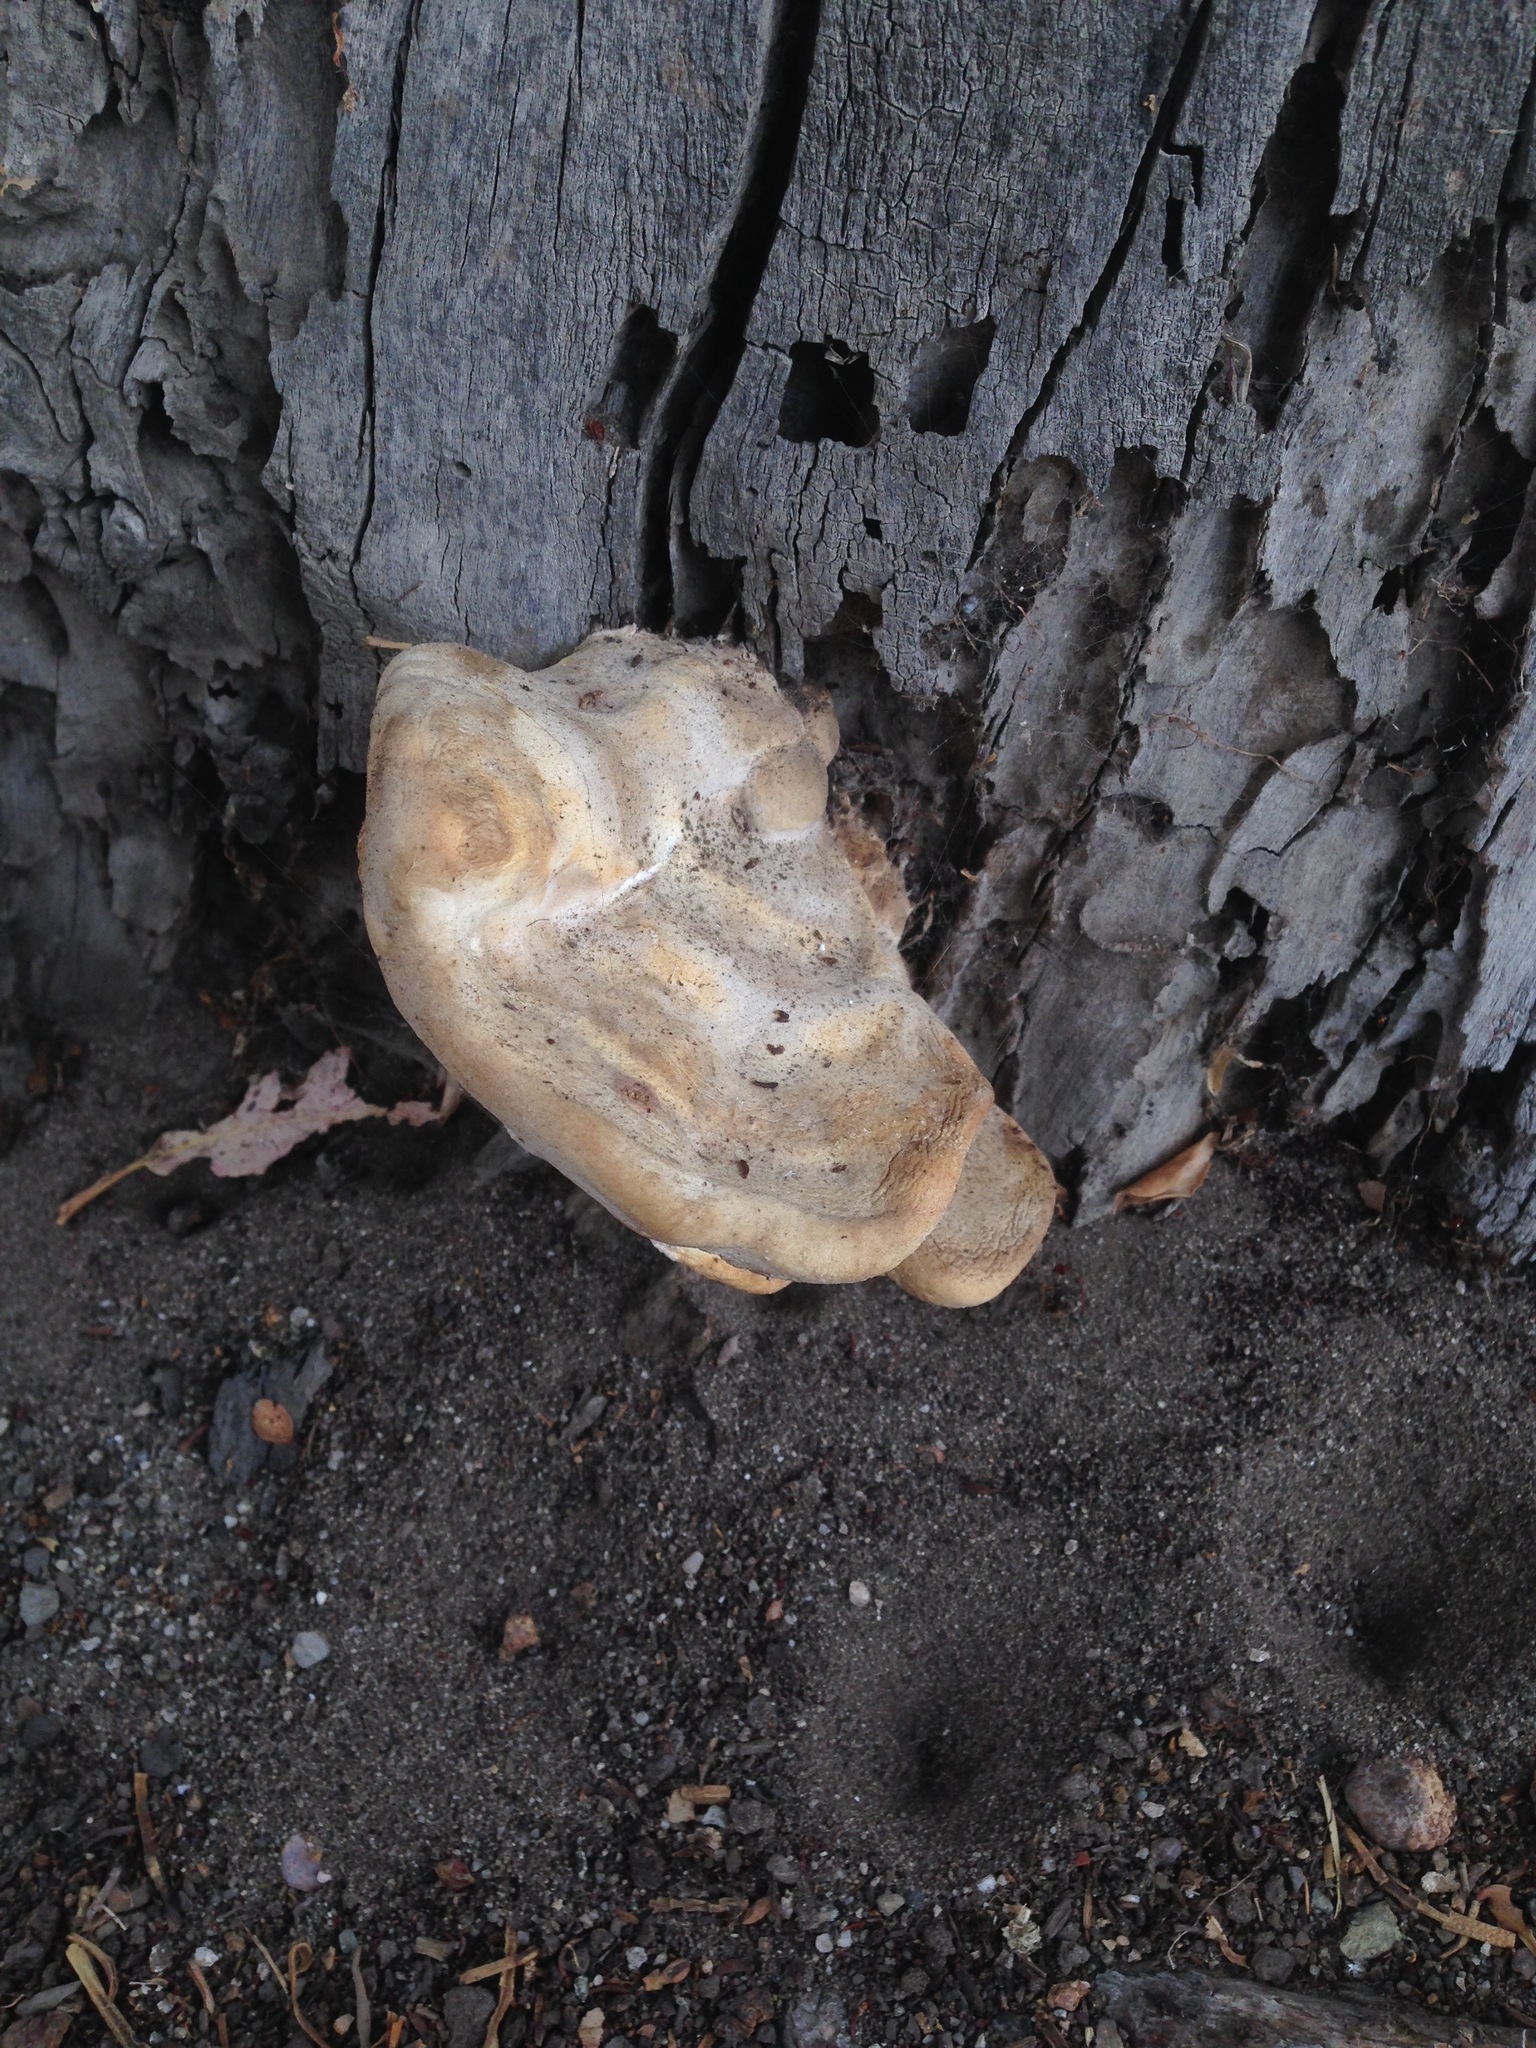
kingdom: Fungi
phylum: Basidiomycota
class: Agaricomycetes
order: Polyporales
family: Laetiporaceae
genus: Laetiporus
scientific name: Laetiporus gilbertsonii
